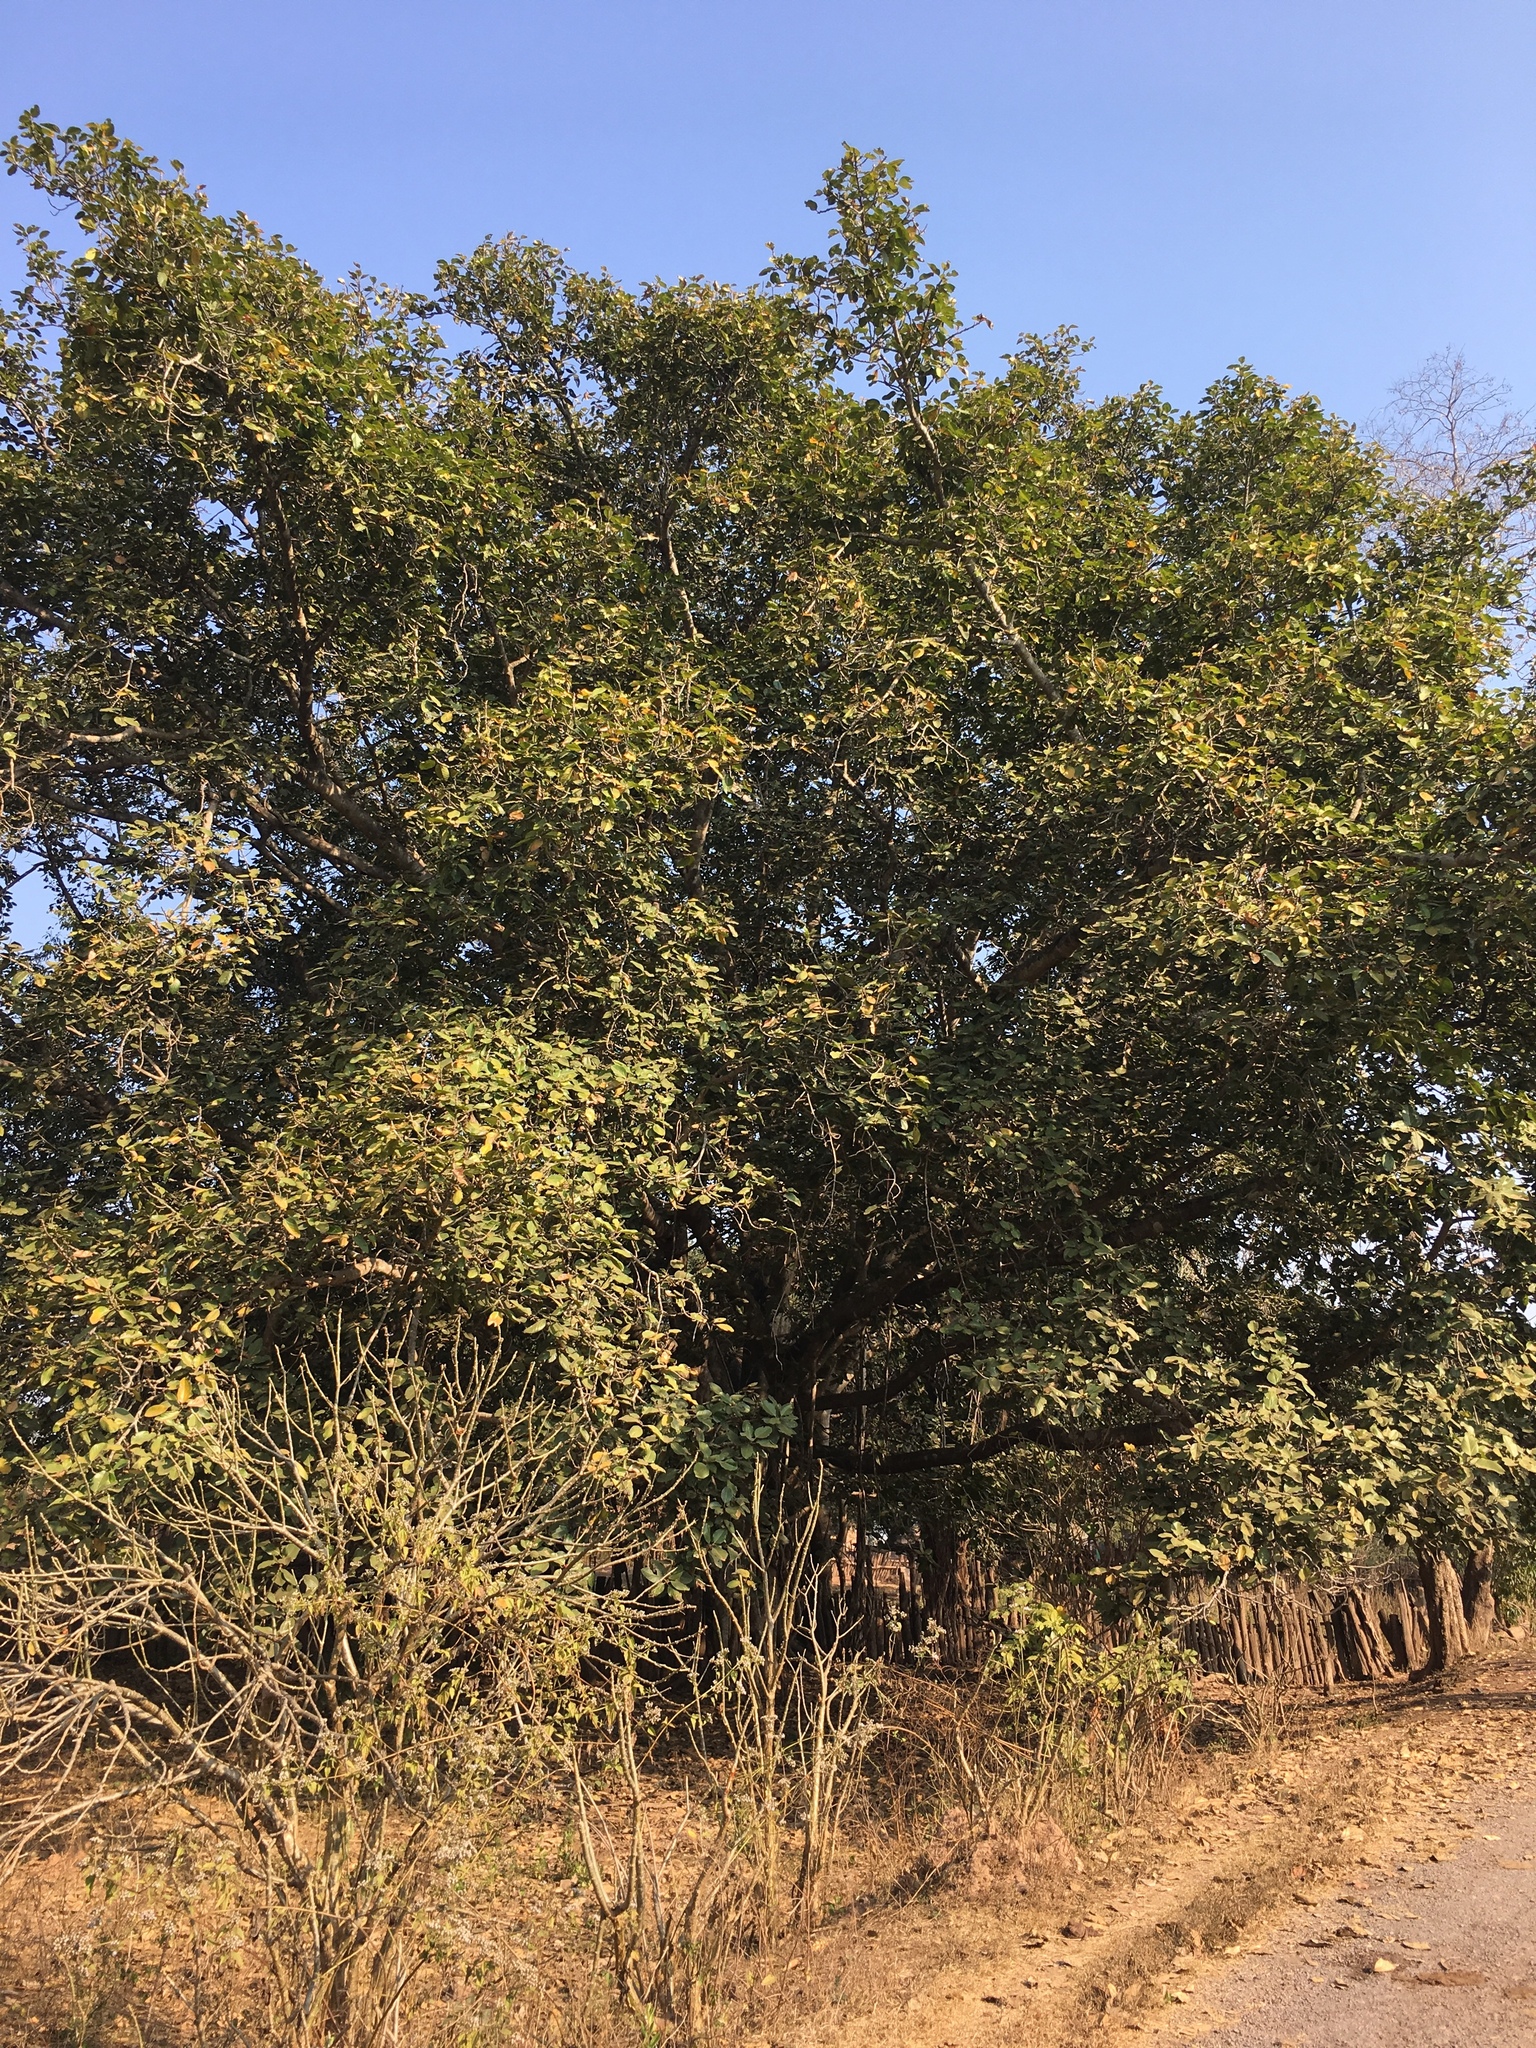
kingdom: Plantae
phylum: Tracheophyta
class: Magnoliopsida
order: Rosales
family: Moraceae
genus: Ficus
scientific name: Ficus benghalensis
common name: Indian banyan
